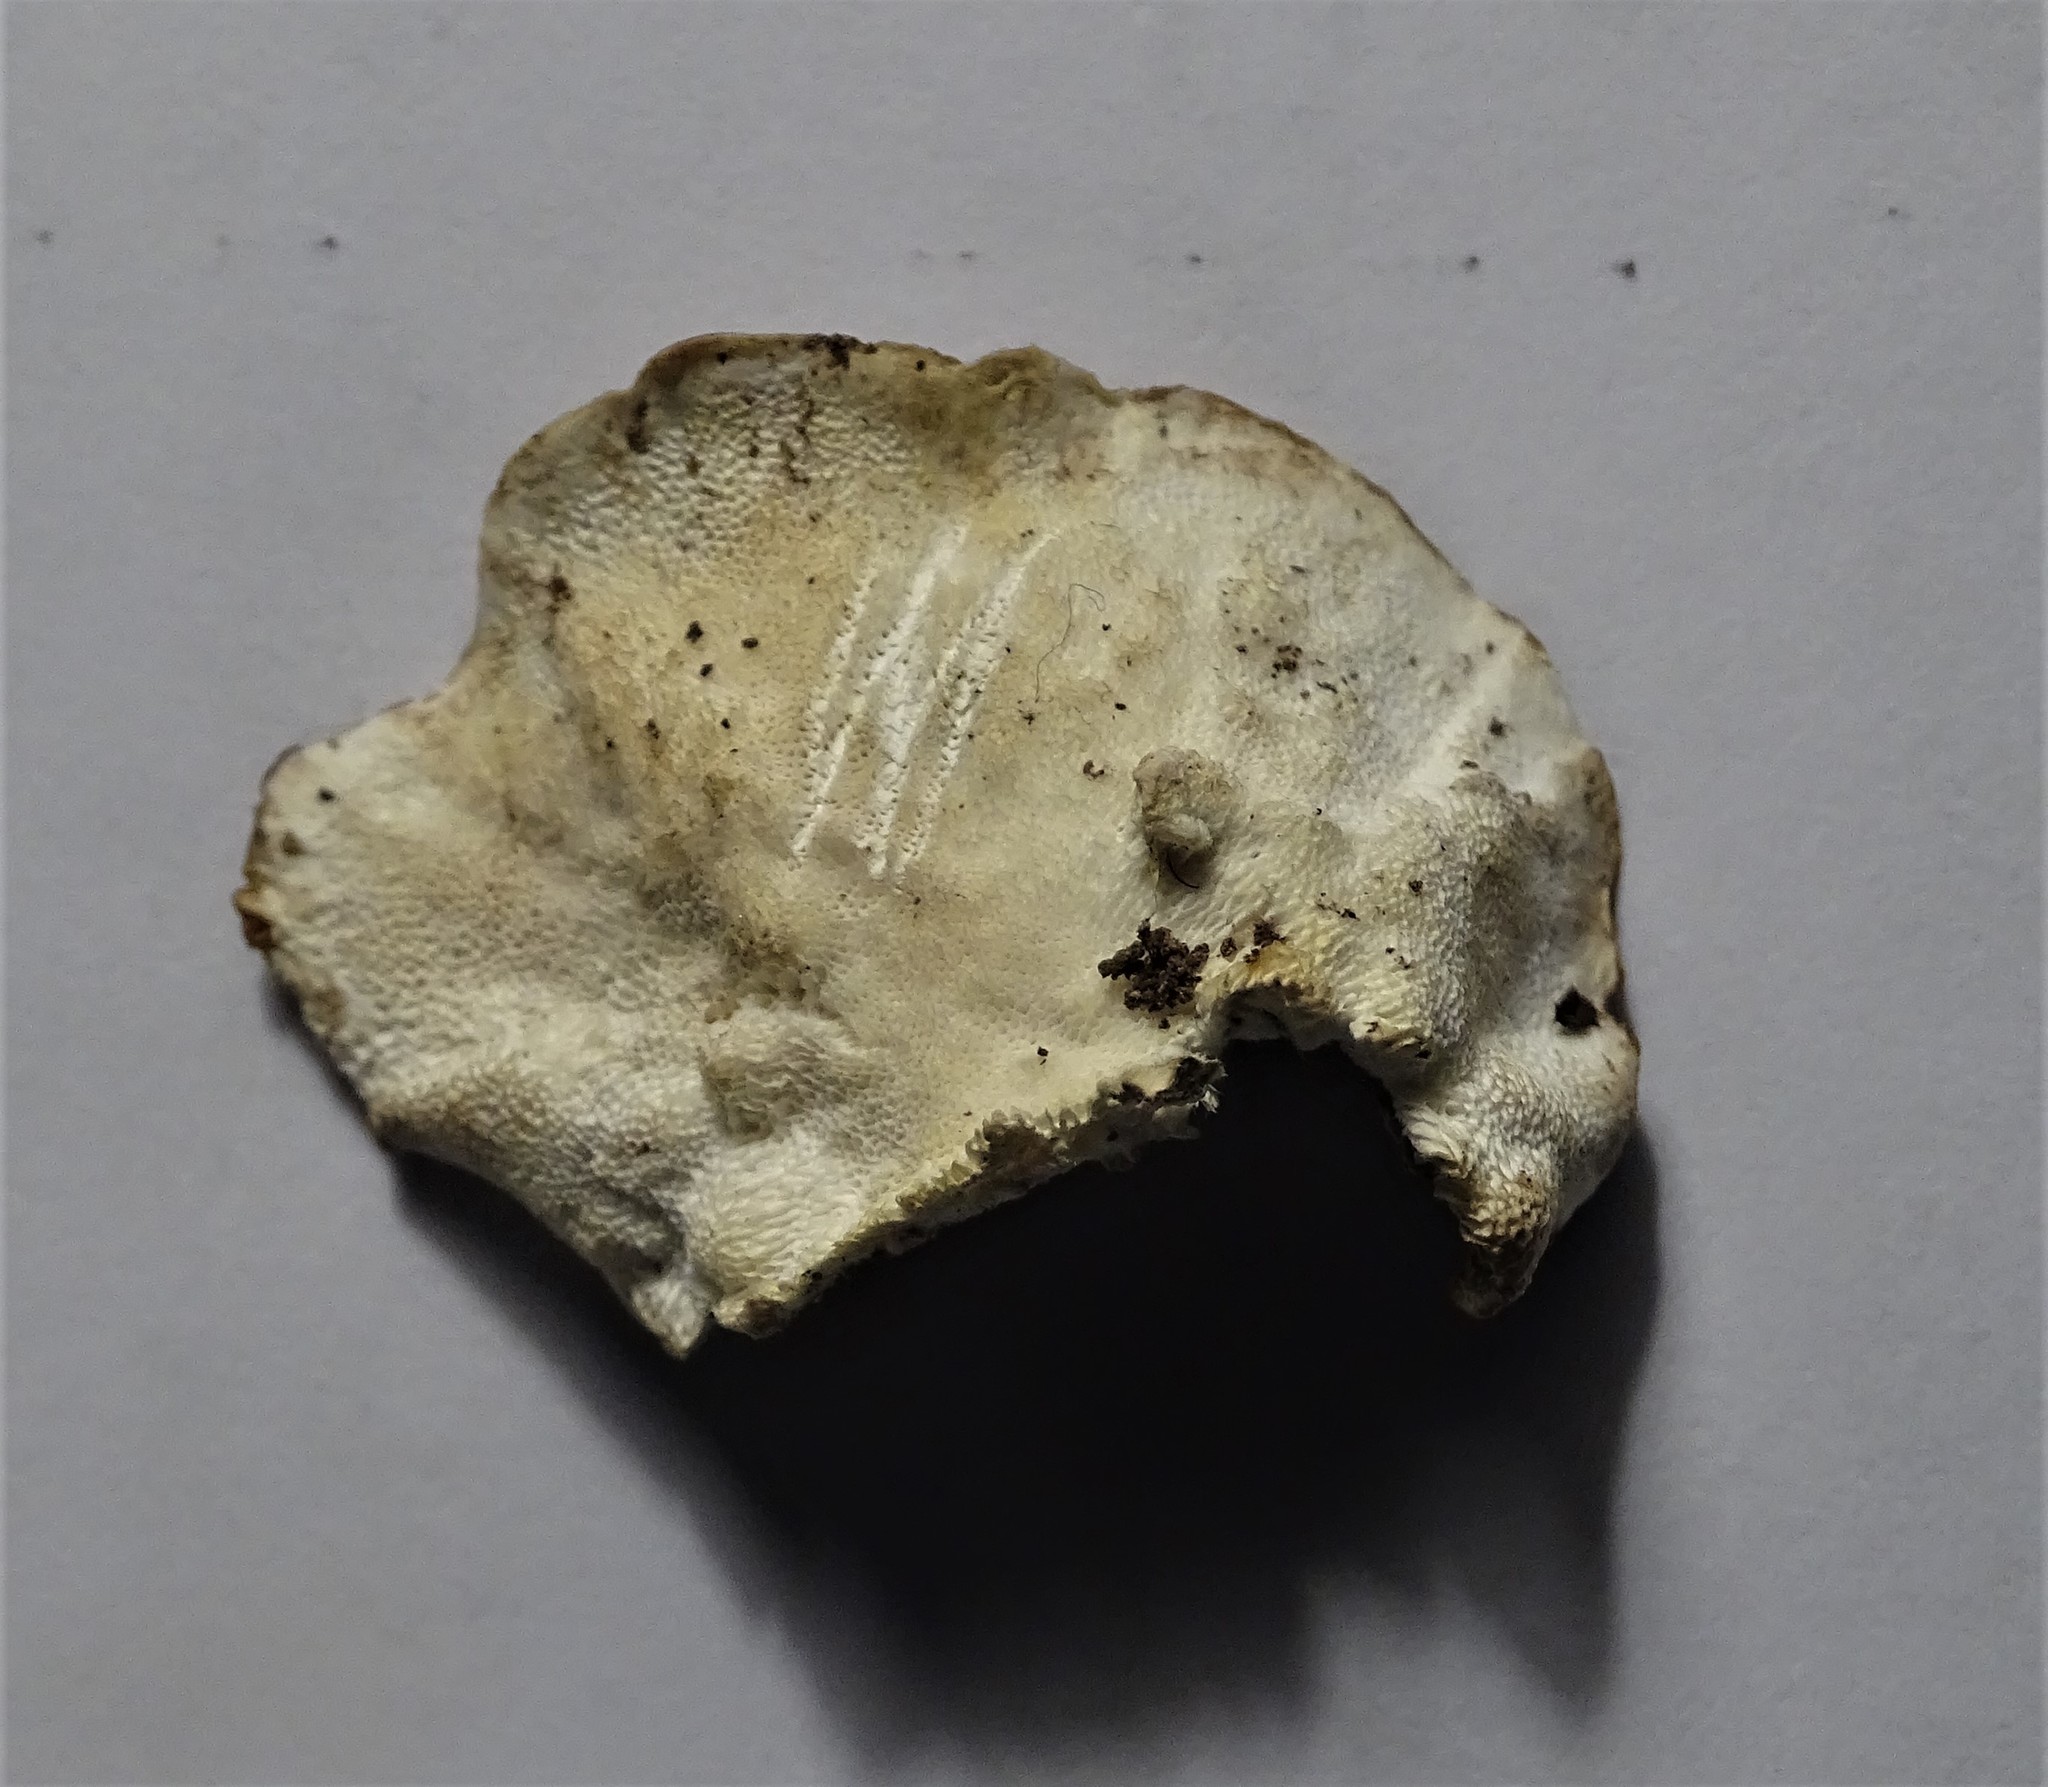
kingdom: Fungi
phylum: Basidiomycota
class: Agaricomycetes
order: Polyporales
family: Polyporaceae
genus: Trametes
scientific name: Trametes ochracea
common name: Ochre bracket
